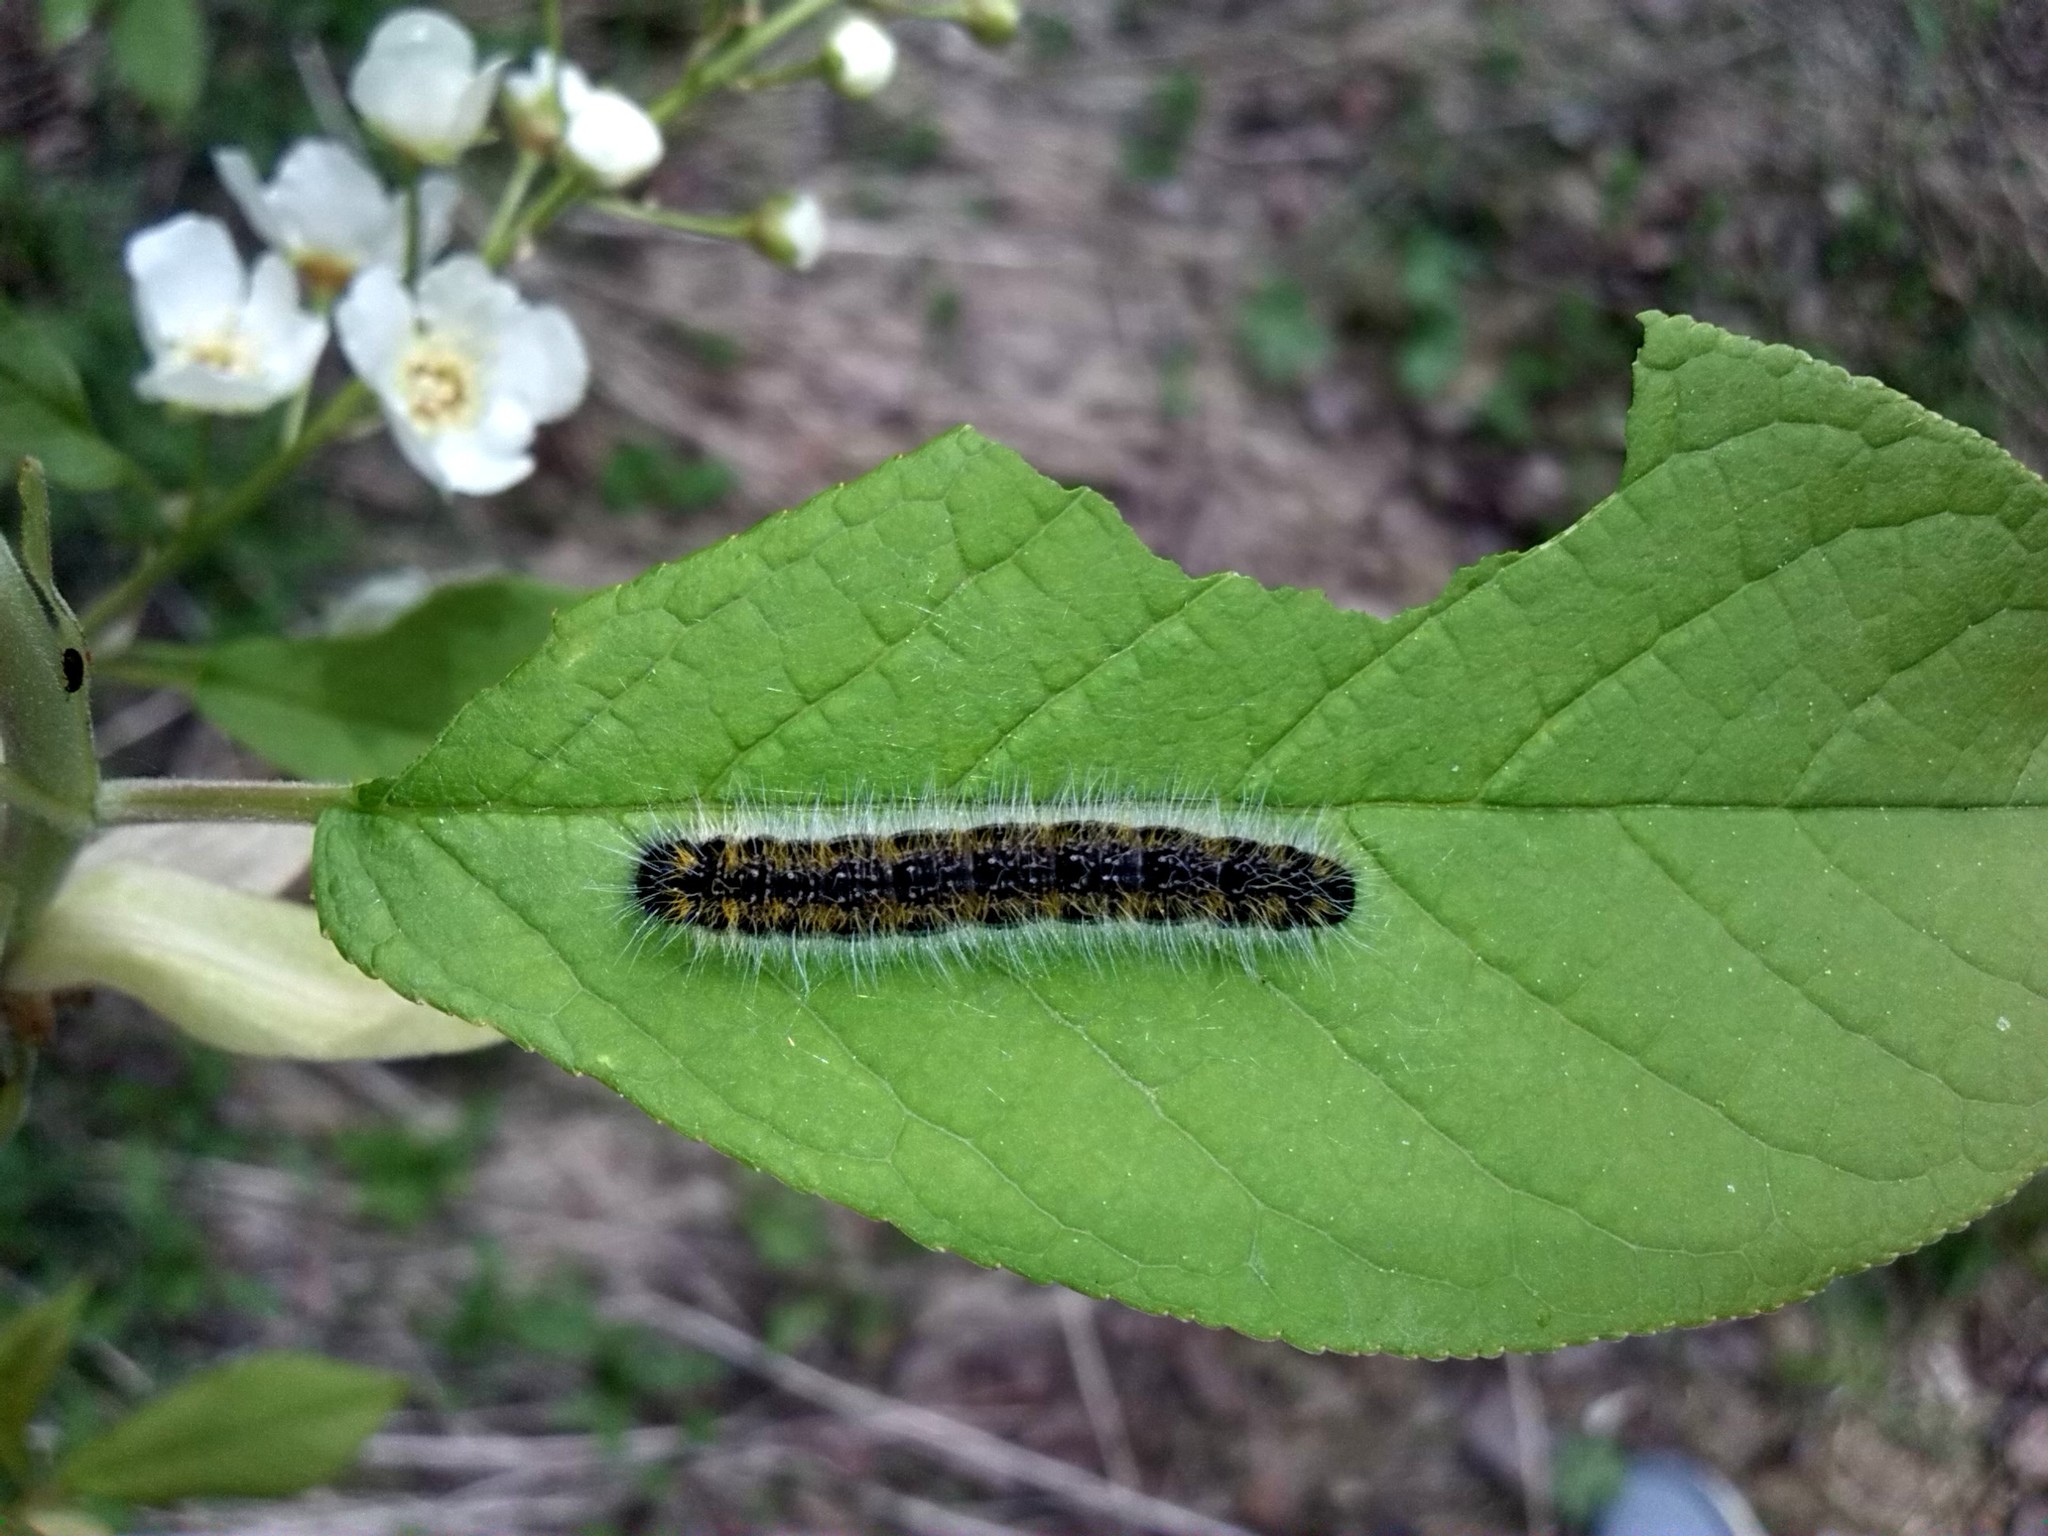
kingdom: Animalia
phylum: Arthropoda
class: Insecta
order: Lepidoptera
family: Pieridae
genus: Aporia
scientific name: Aporia crataegi
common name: Black-veined white
